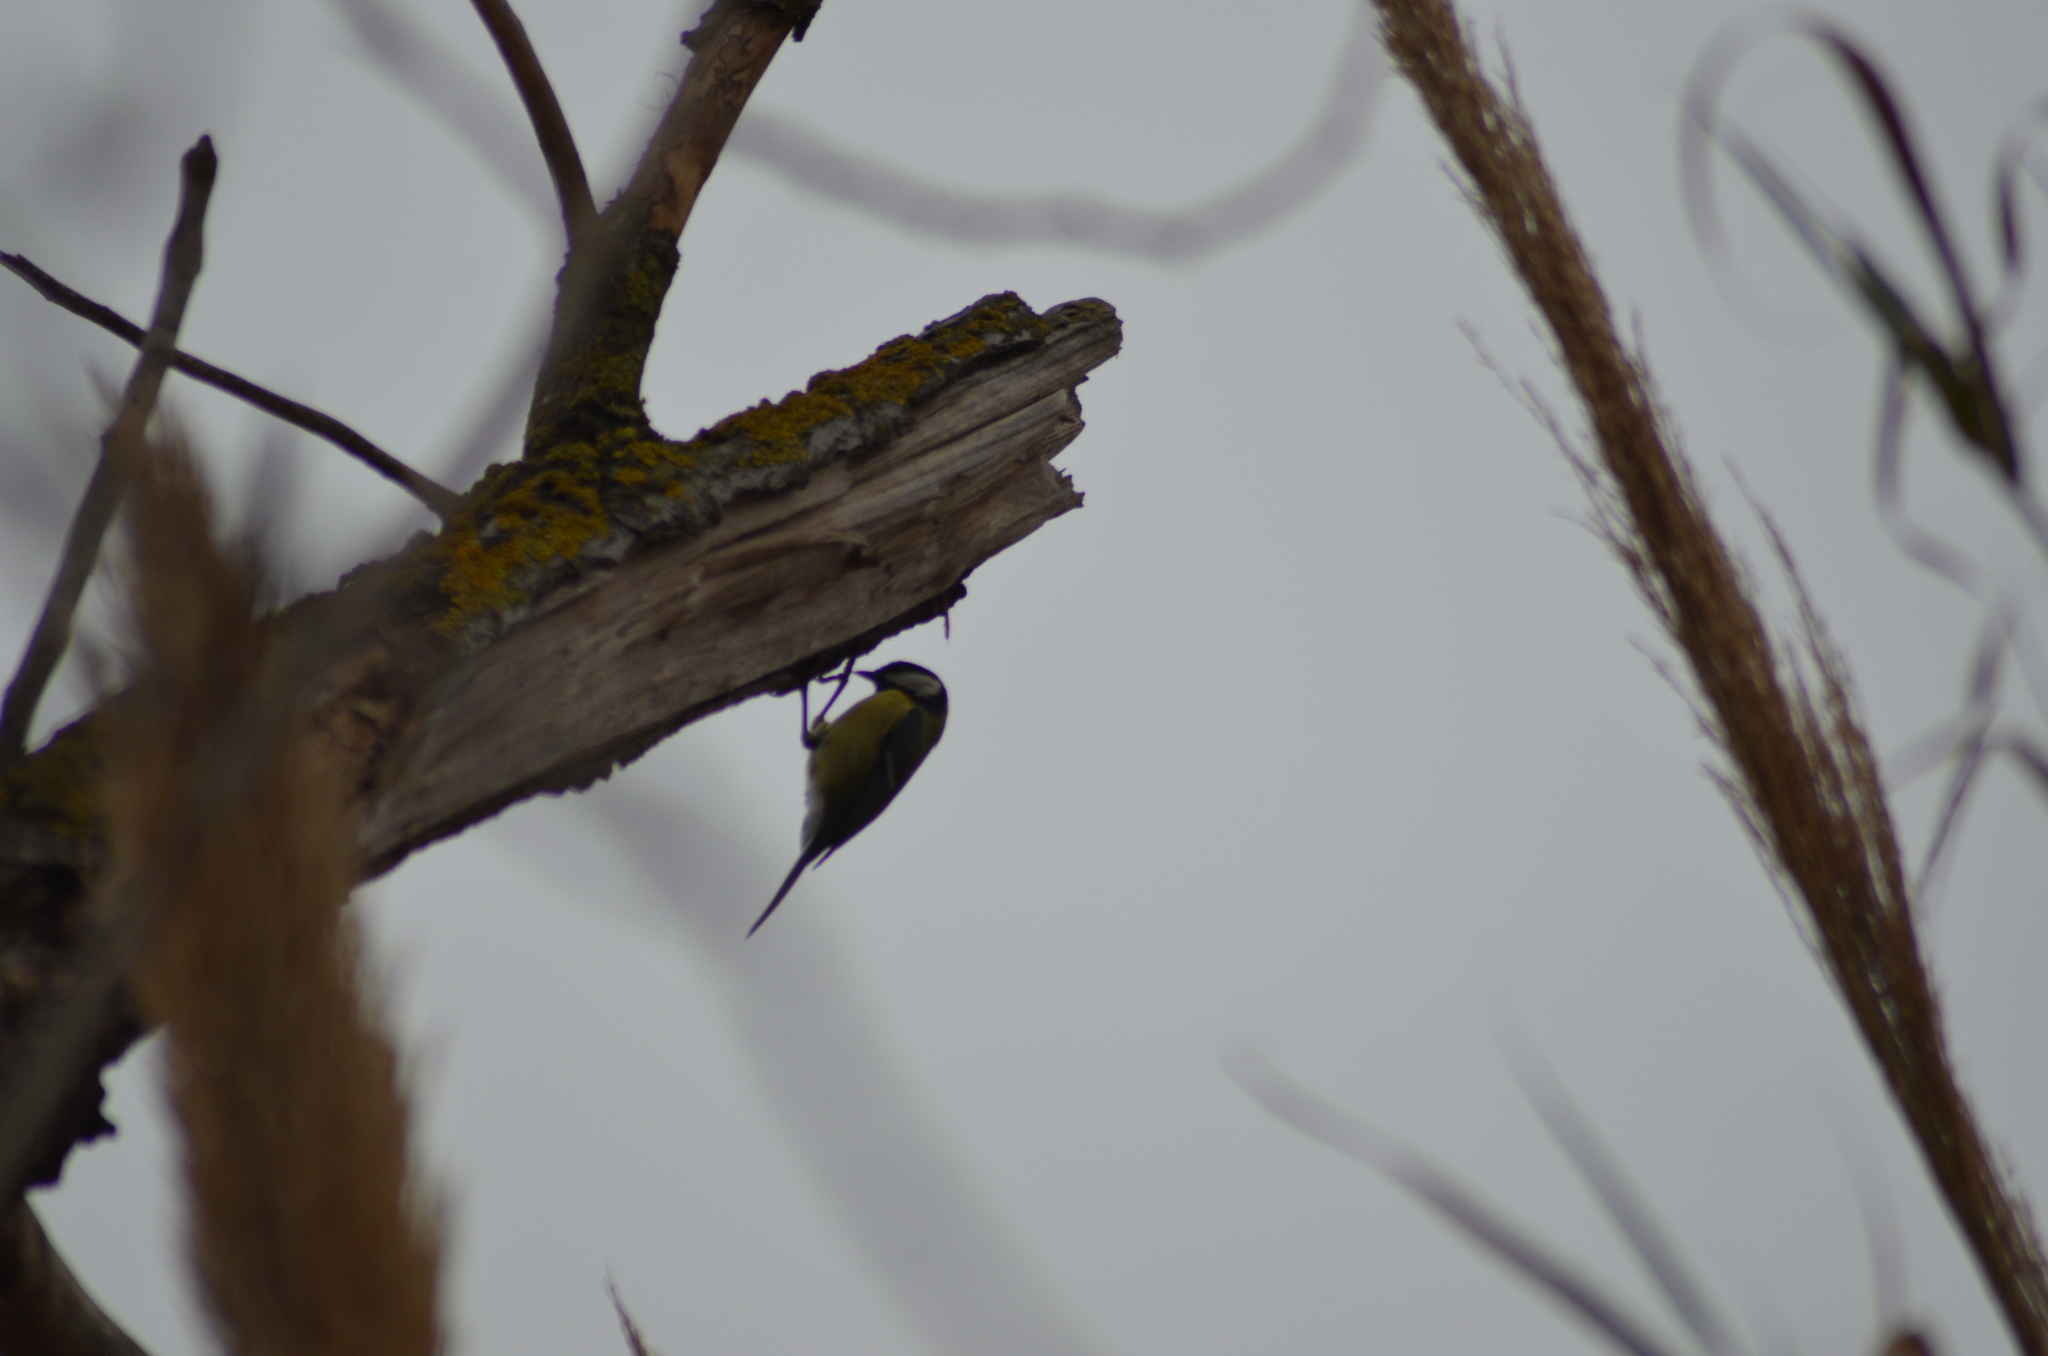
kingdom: Animalia
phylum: Chordata
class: Aves
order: Passeriformes
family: Paridae
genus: Parus
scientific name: Parus major
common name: Great tit
